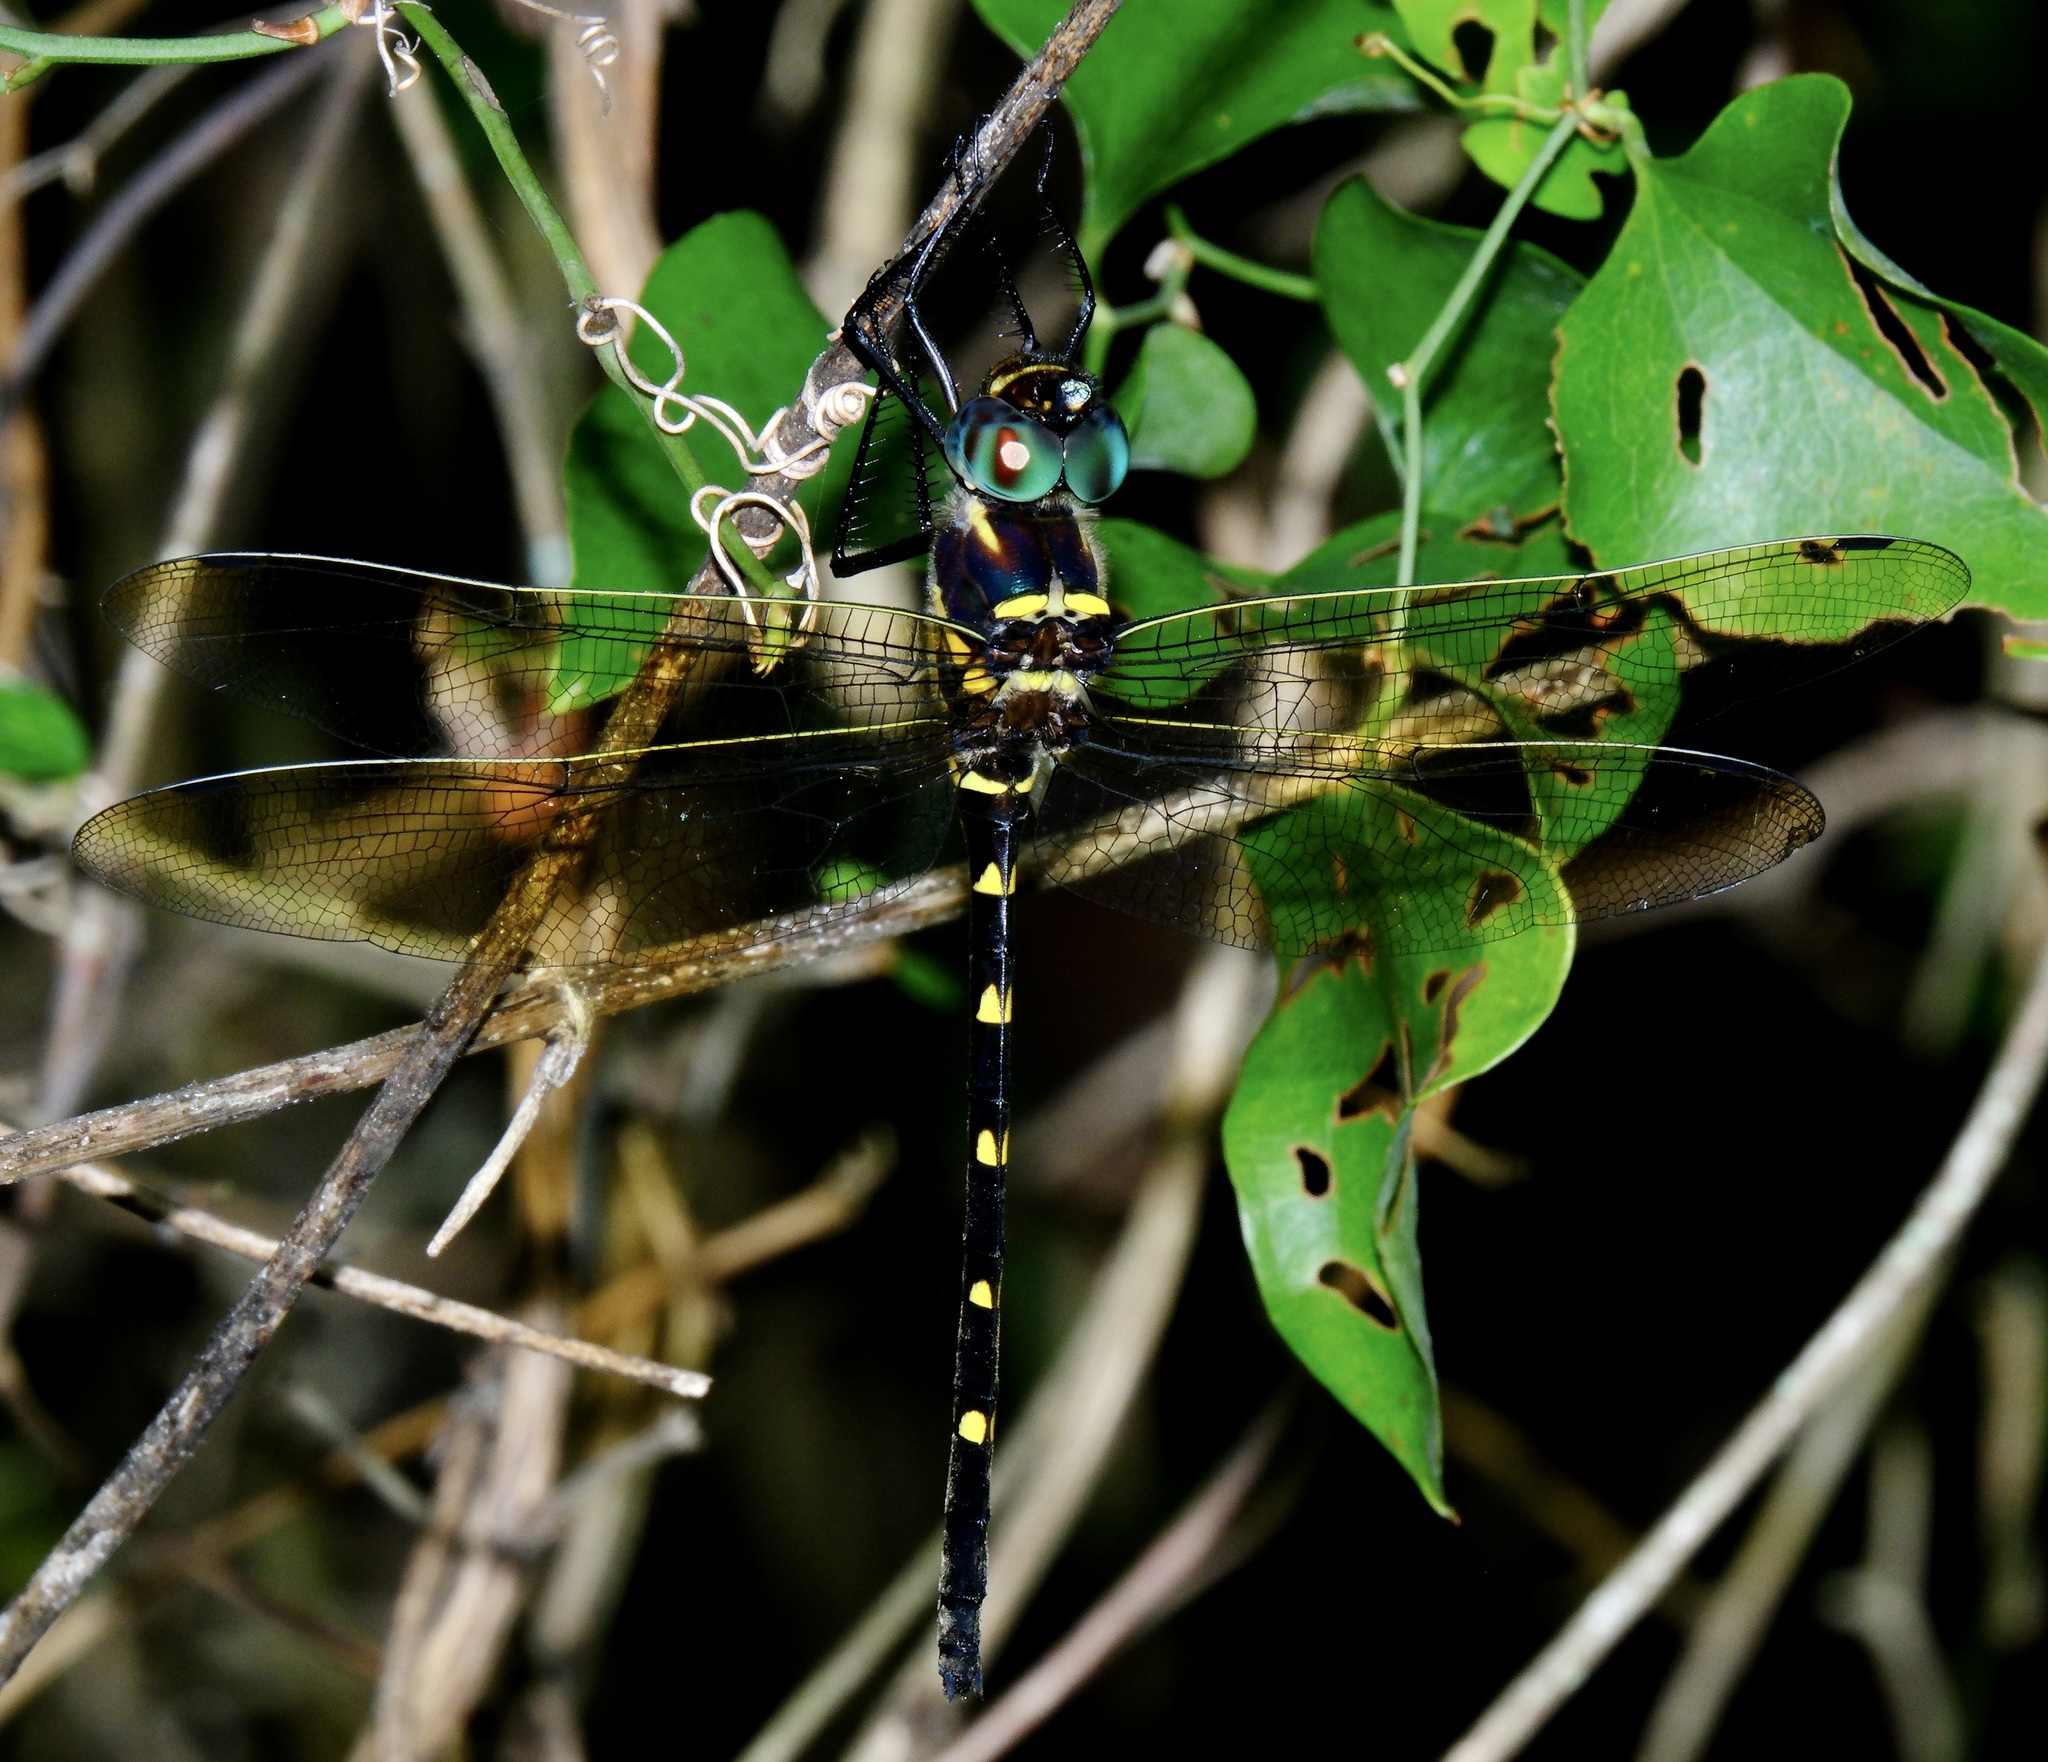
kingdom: Animalia
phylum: Arthropoda
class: Insecta
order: Odonata
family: Macromiidae
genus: Macromia
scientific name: Macromia taeniolata
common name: Royal river cruiser
